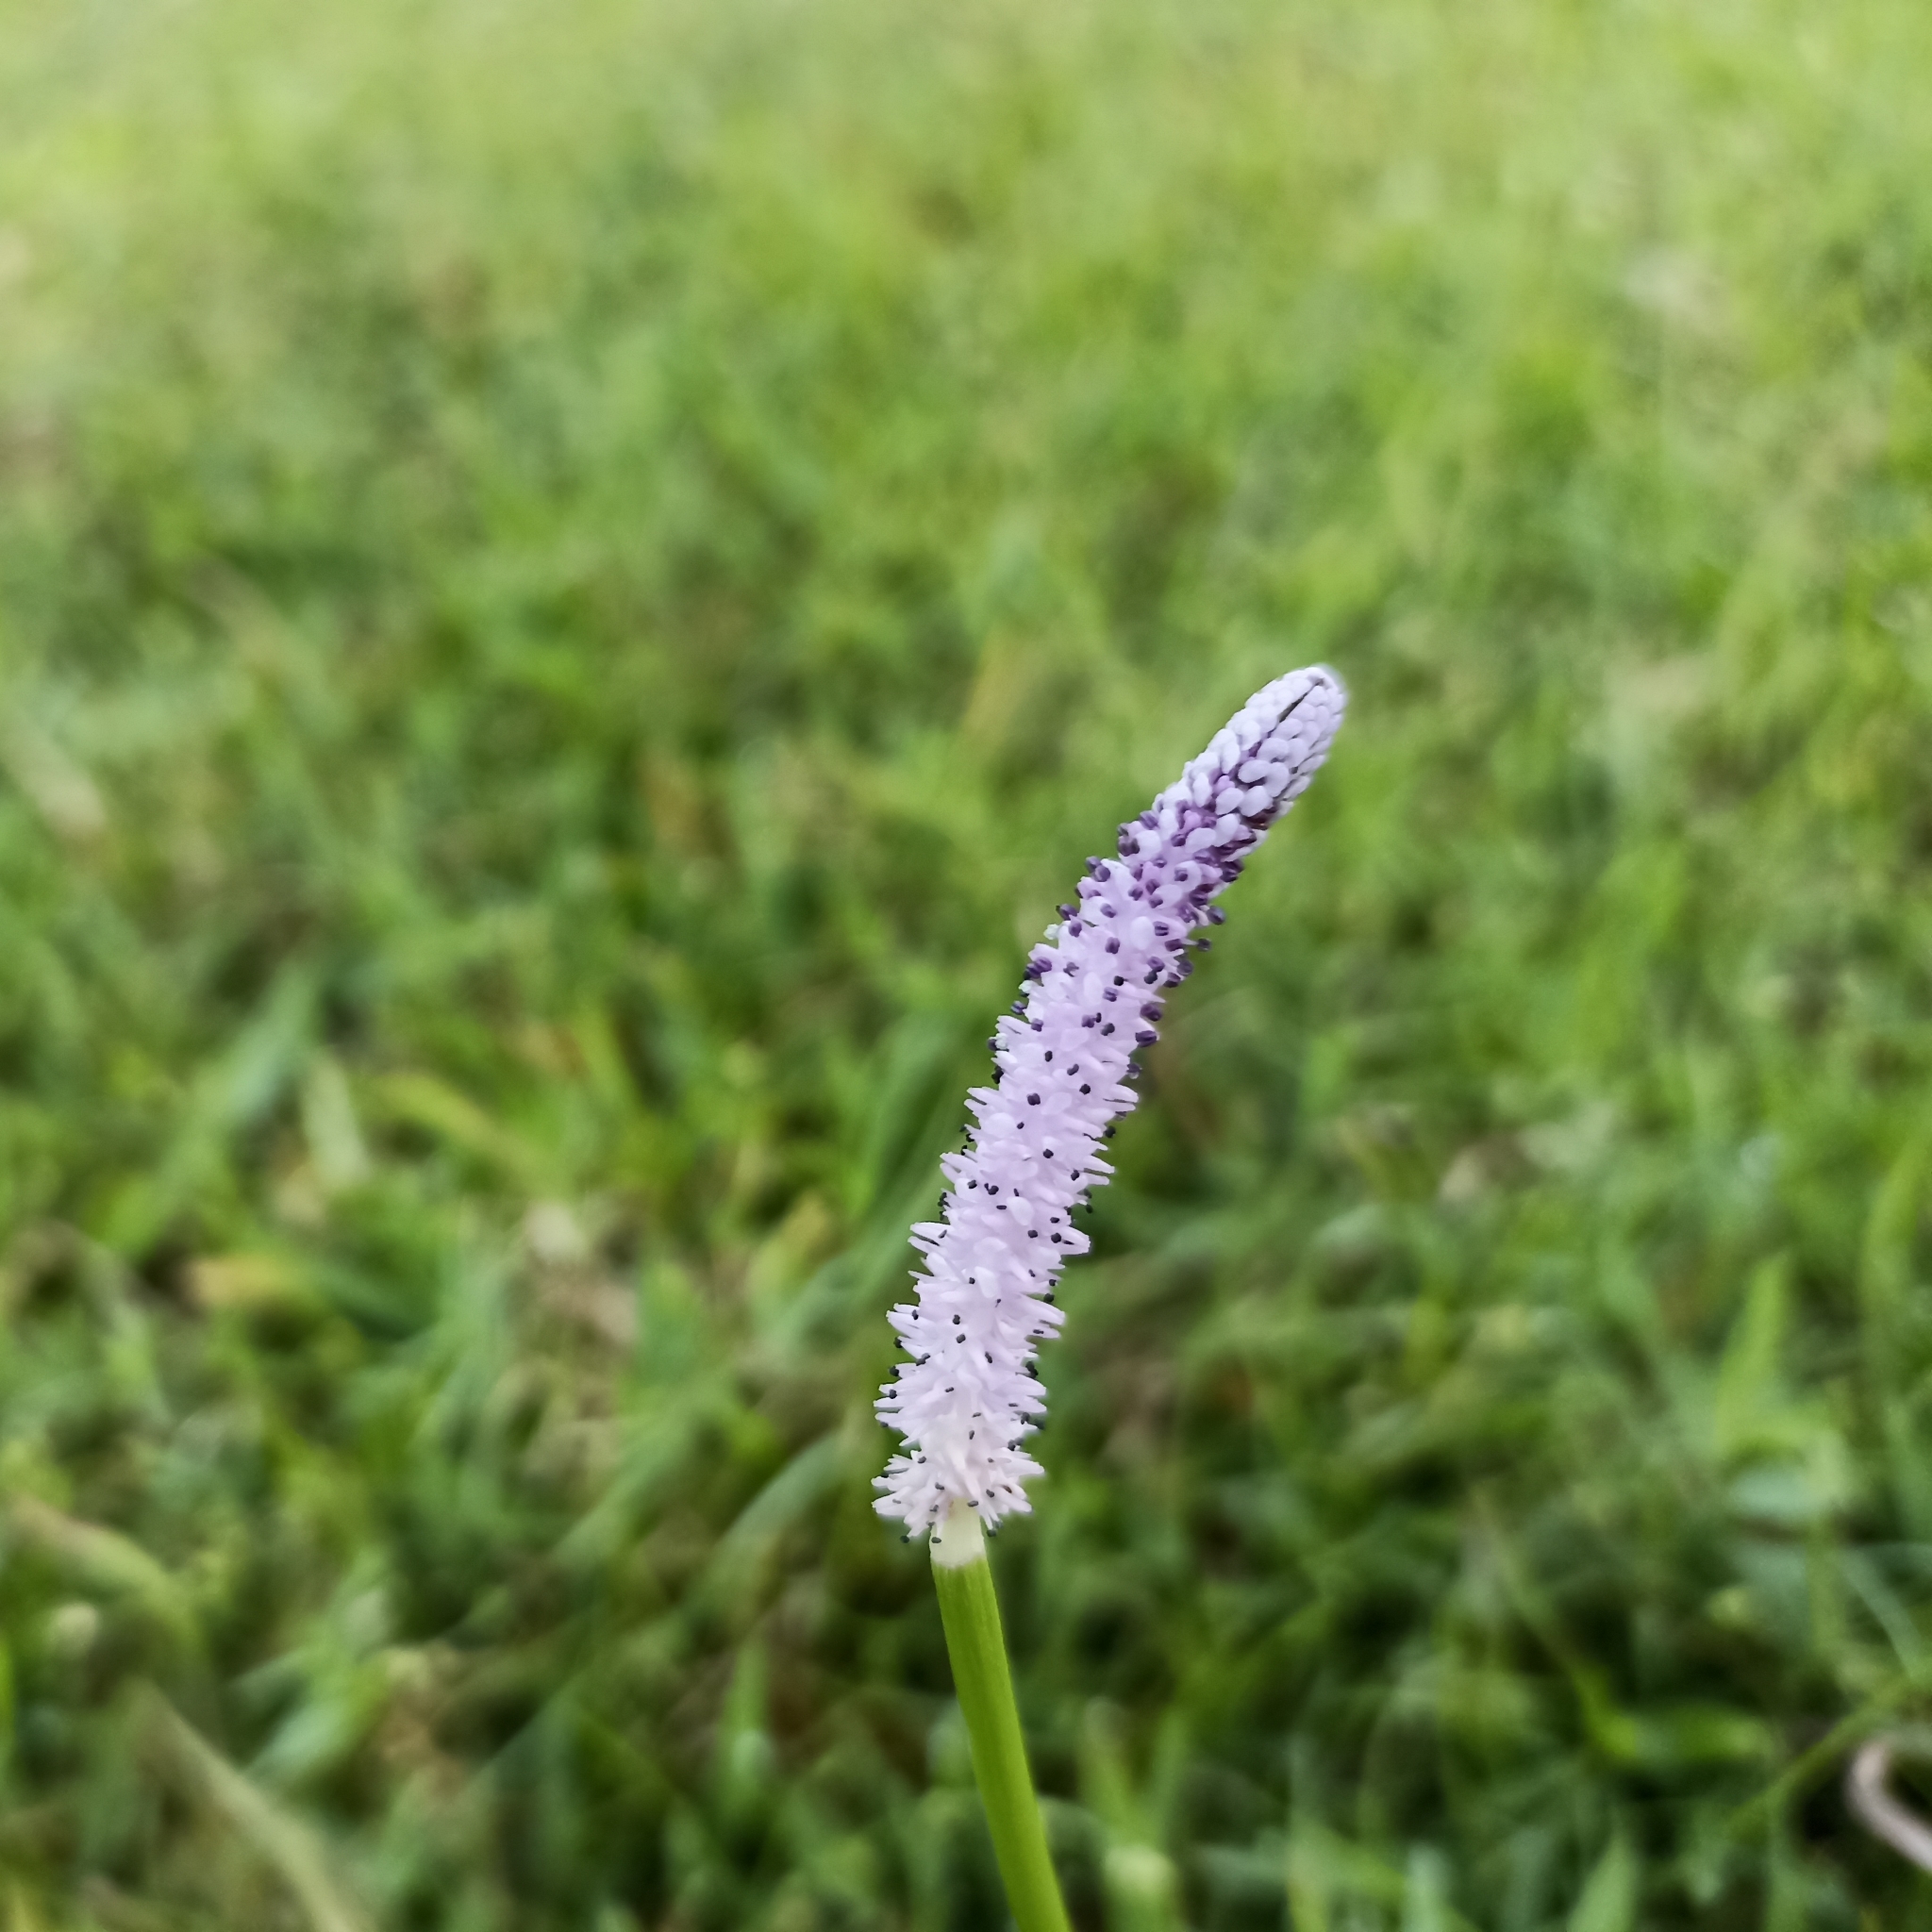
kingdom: Plantae
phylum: Tracheophyta
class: Liliopsida
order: Alismatales
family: Aponogetonaceae
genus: Aponogeton
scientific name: Aponogeton natans
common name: Drifting sword plant
